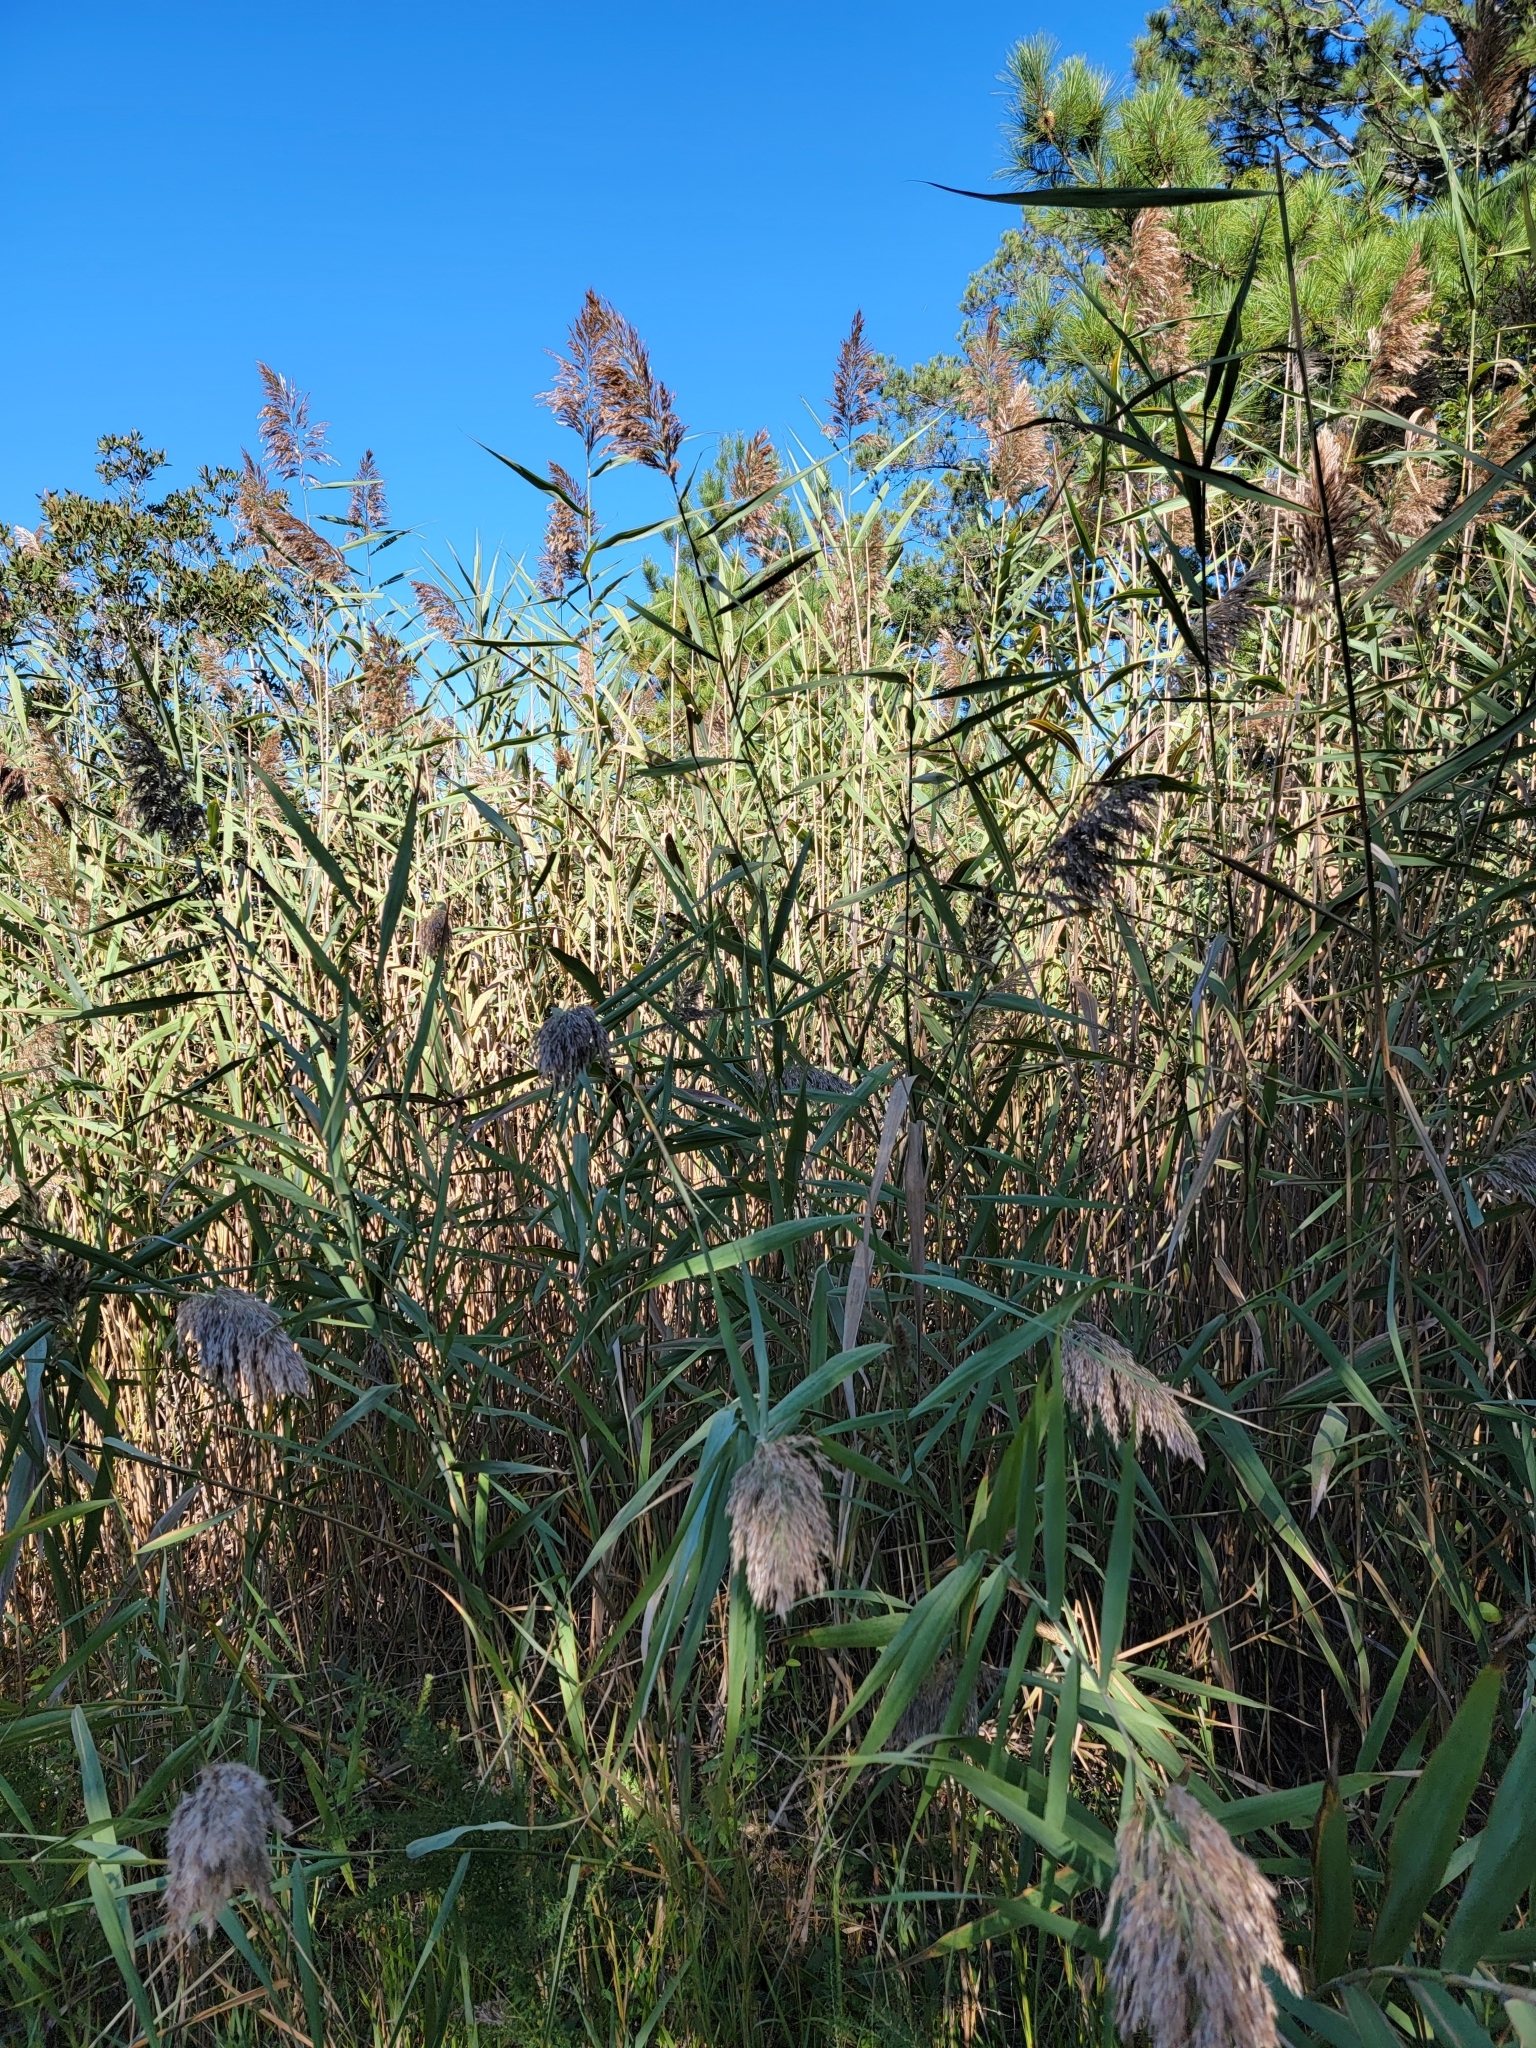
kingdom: Plantae
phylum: Tracheophyta
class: Liliopsida
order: Poales
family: Poaceae
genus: Phragmites
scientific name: Phragmites australis
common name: Common reed
